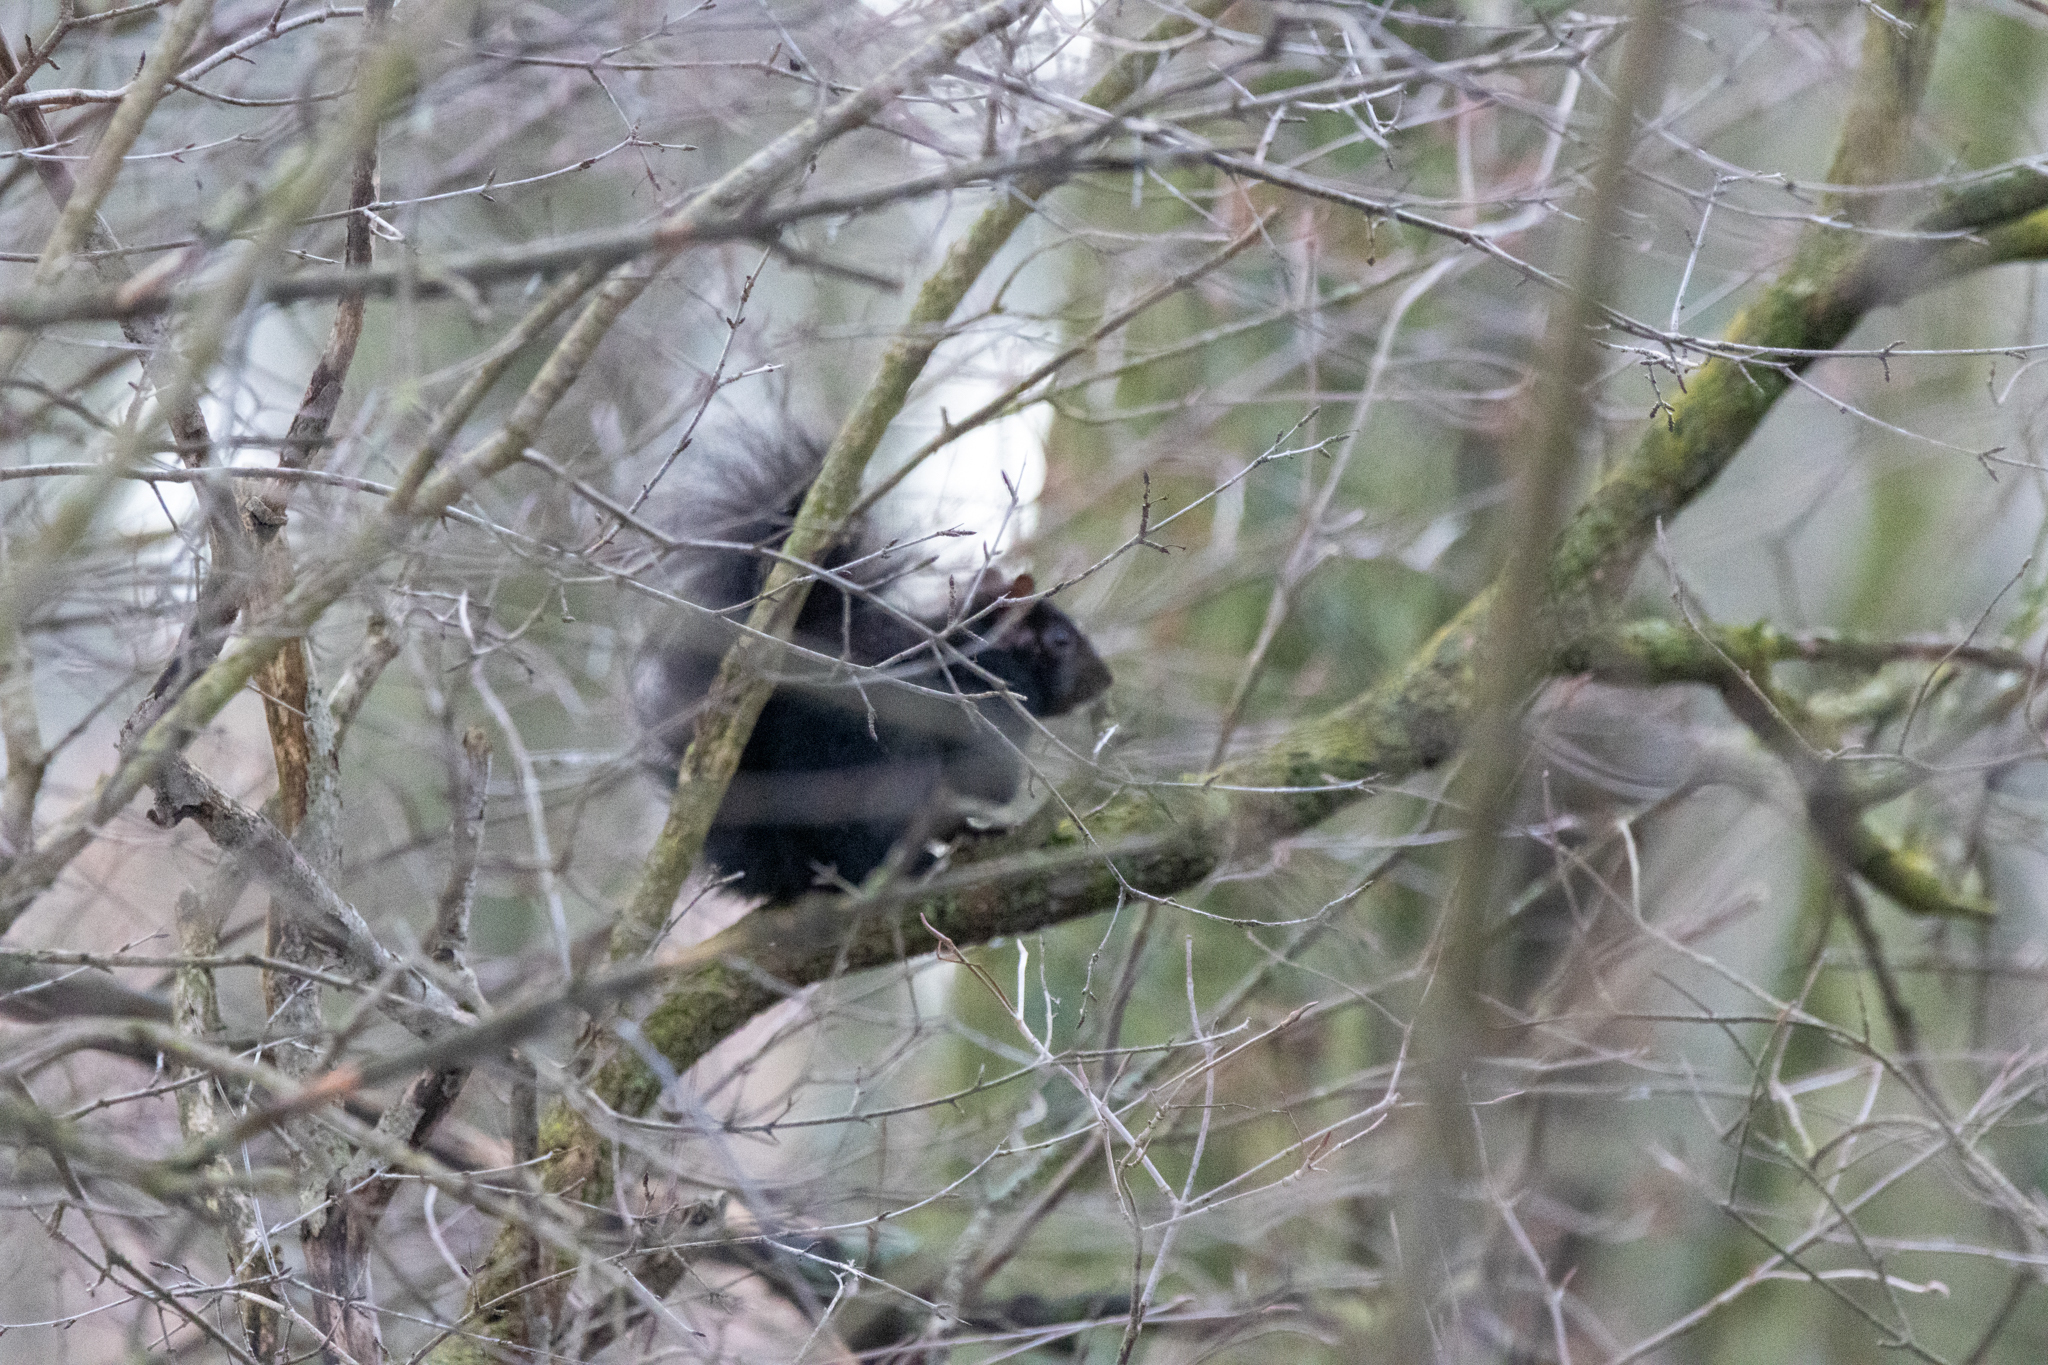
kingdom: Animalia
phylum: Chordata
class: Mammalia
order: Rodentia
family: Sciuridae
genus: Sciurus
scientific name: Sciurus carolinensis
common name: Eastern gray squirrel
